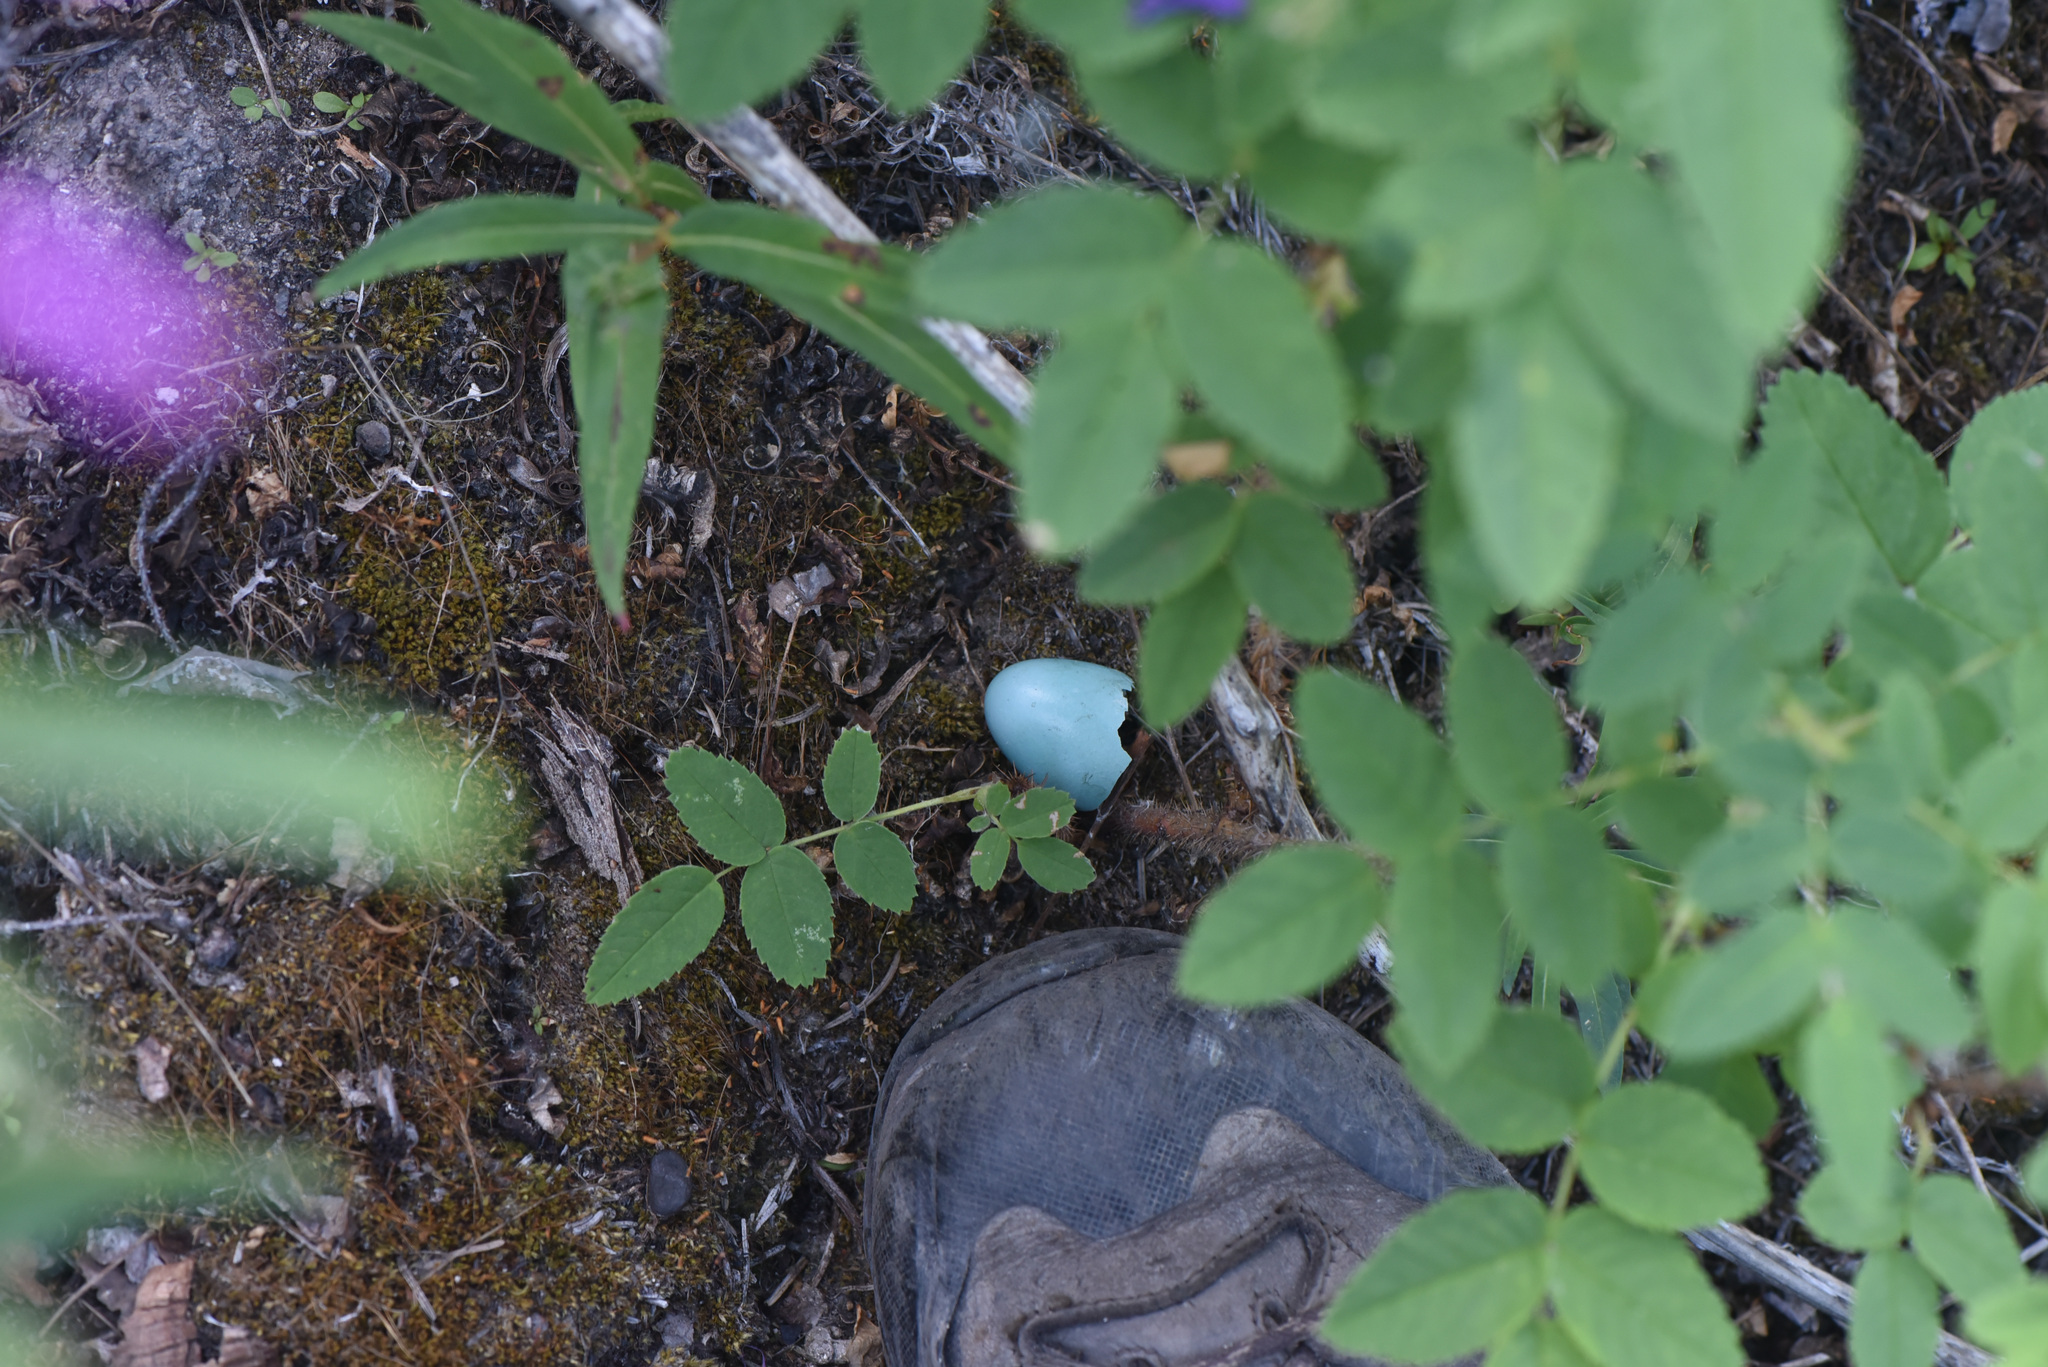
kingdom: Animalia
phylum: Chordata
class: Aves
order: Passeriformes
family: Turdidae
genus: Turdus
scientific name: Turdus migratorius
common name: American robin
